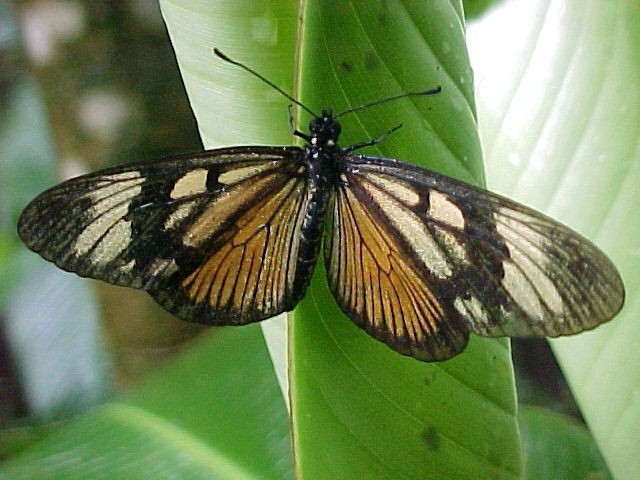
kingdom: Animalia
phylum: Arthropoda
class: Insecta
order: Lepidoptera
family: Nymphalidae
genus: Actinote
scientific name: Actinote anteas
